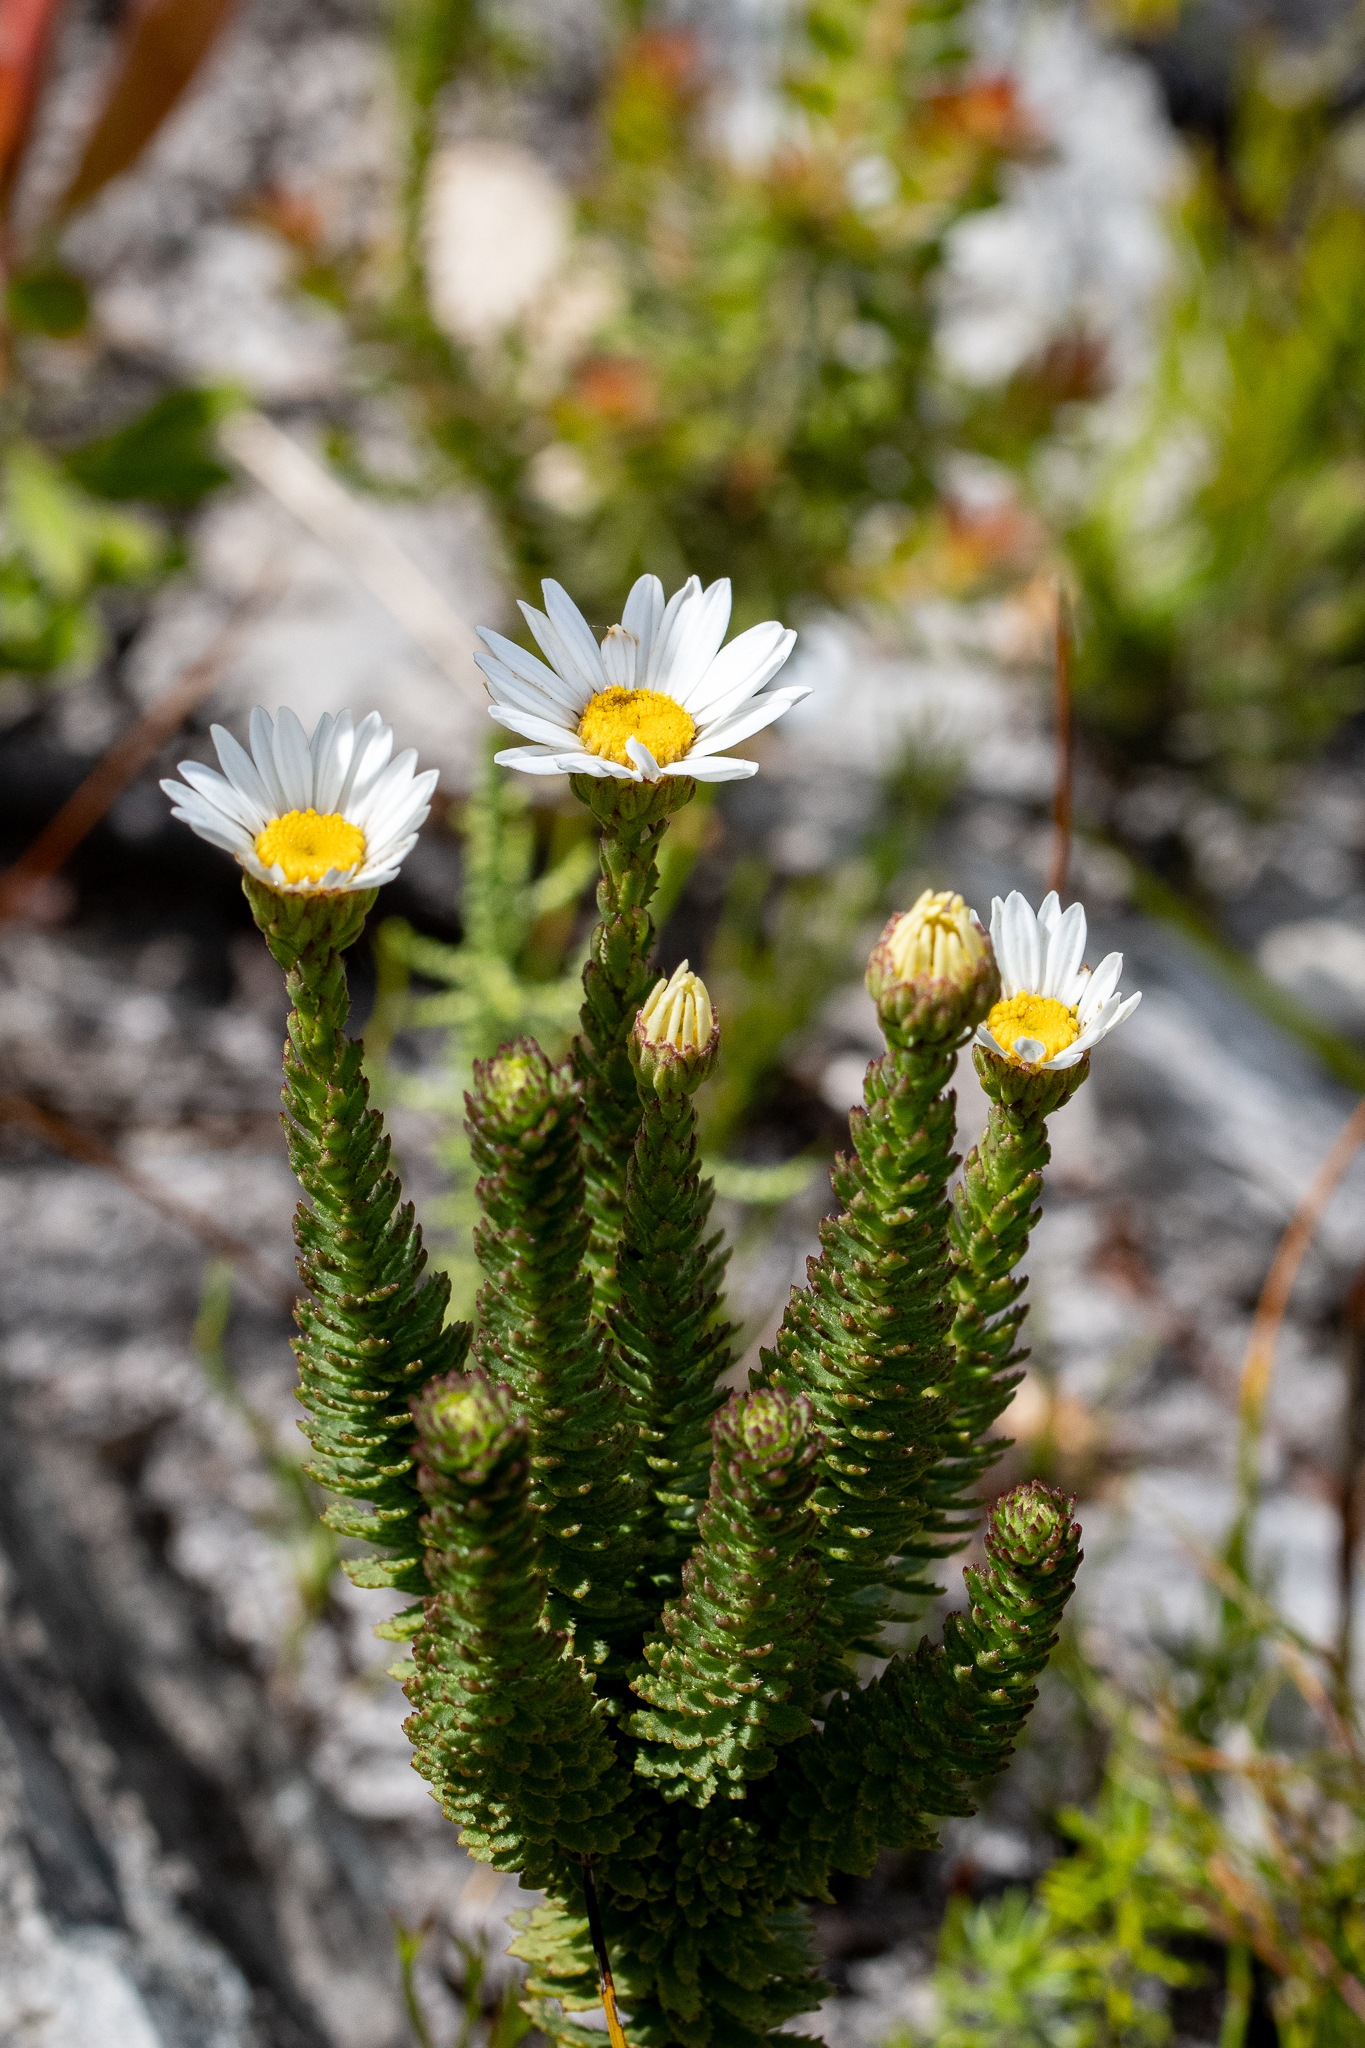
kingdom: Plantae
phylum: Tracheophyta
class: Magnoliopsida
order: Asterales
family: Asteraceae
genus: Osmitopsis
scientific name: Osmitopsis afra
